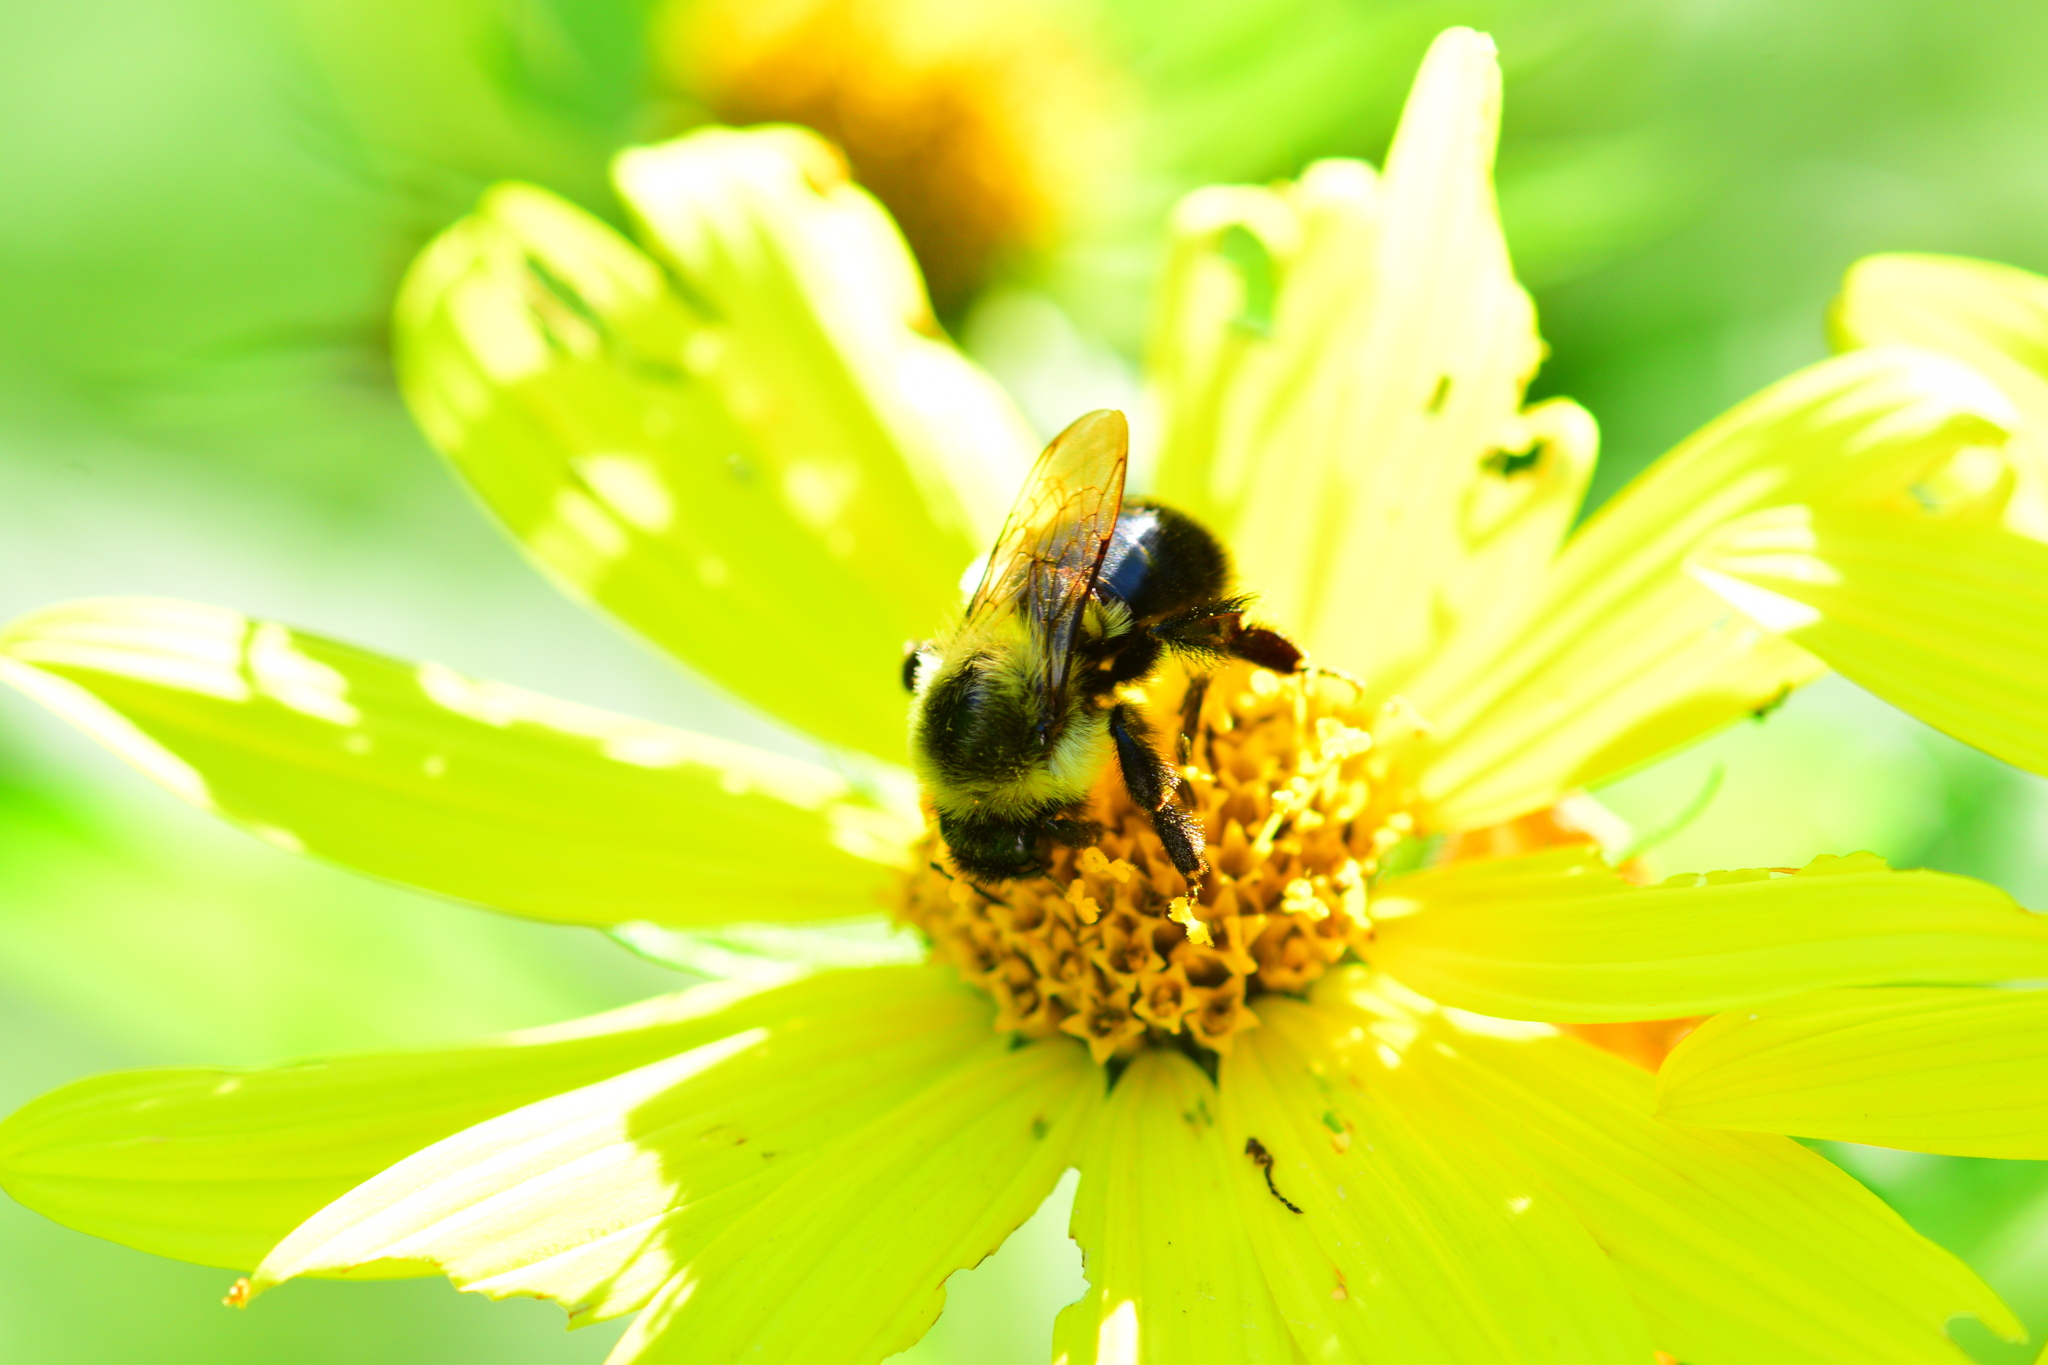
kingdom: Animalia
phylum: Arthropoda
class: Insecta
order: Hymenoptera
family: Apidae
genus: Bombus
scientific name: Bombus impatiens
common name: Common eastern bumble bee
